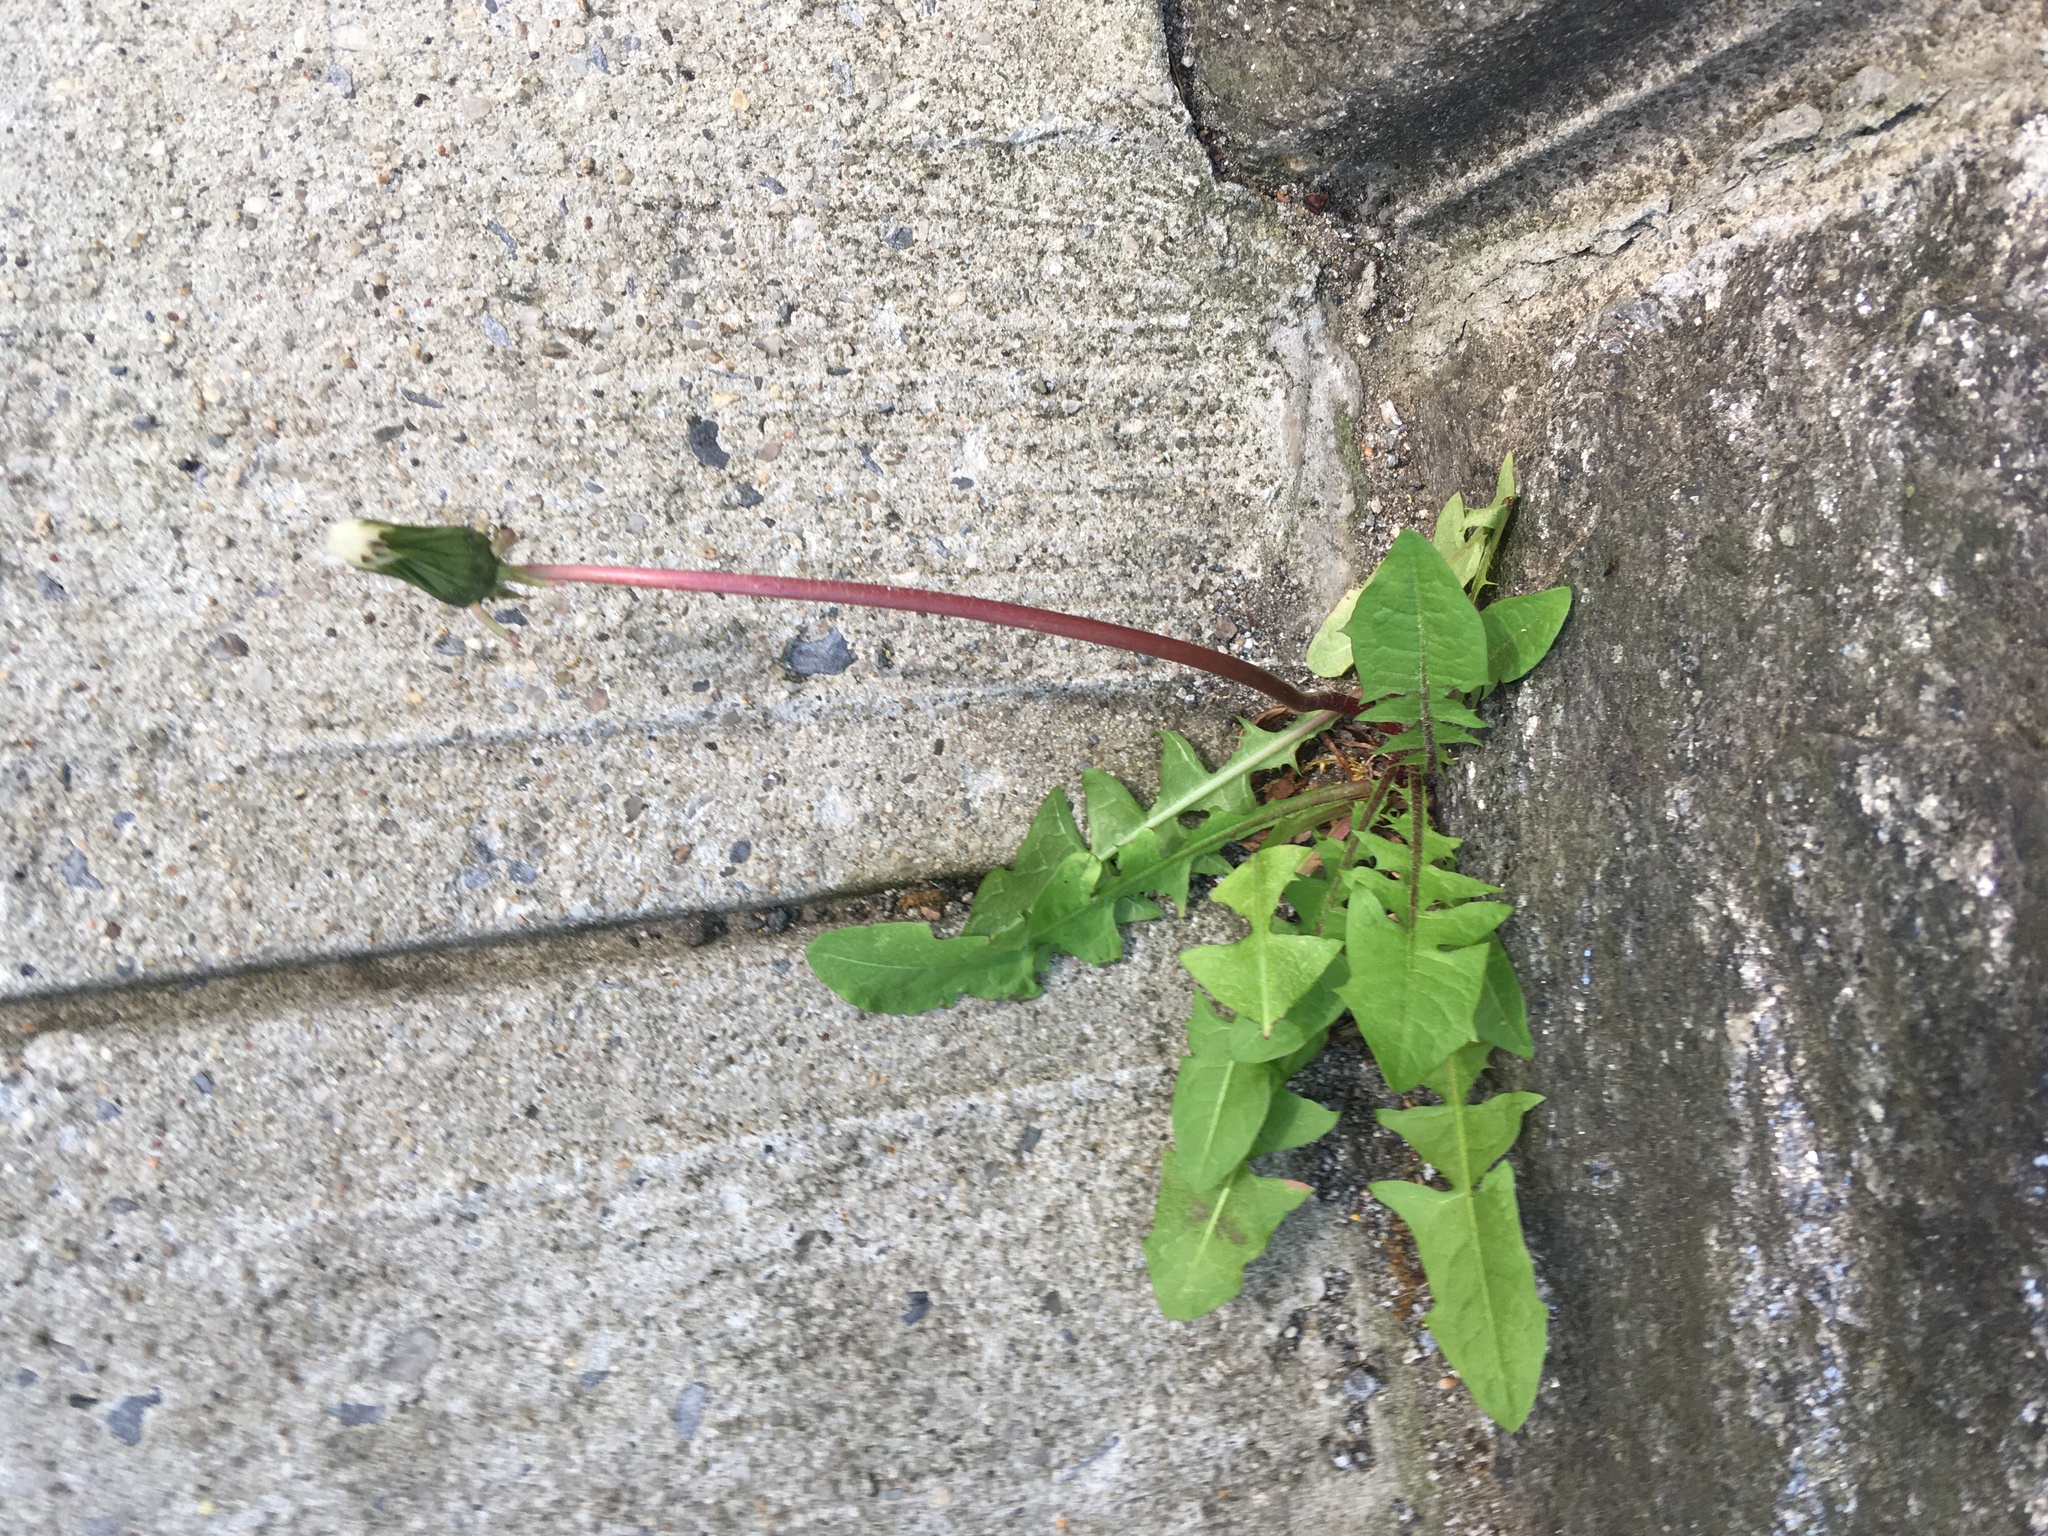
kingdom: Plantae
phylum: Tracheophyta
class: Magnoliopsida
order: Asterales
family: Asteraceae
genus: Taraxacum
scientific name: Taraxacum
